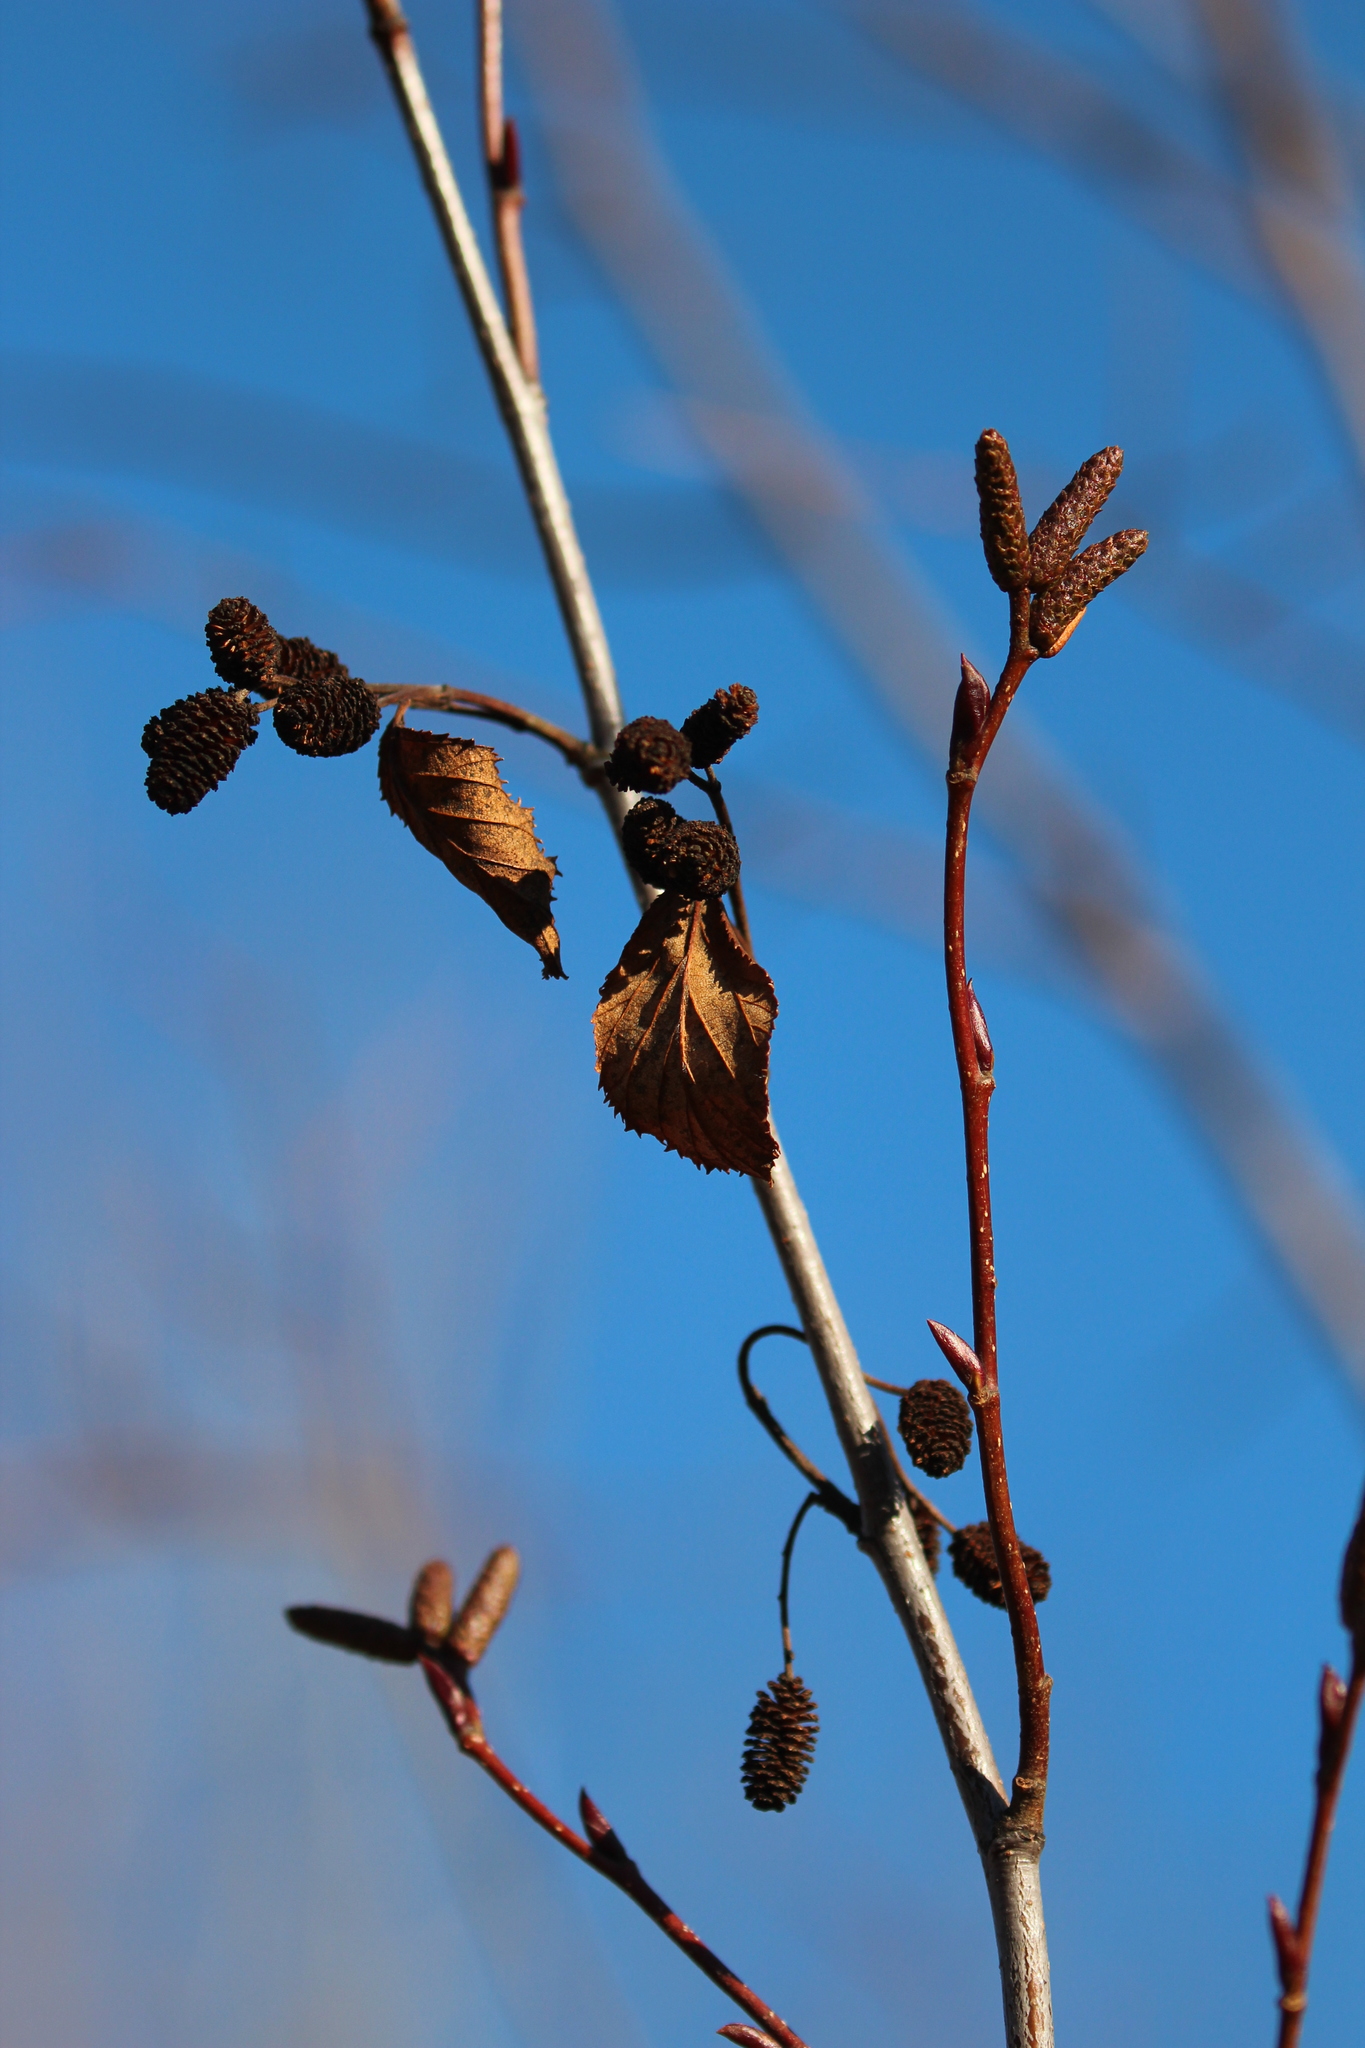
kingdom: Plantae
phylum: Tracheophyta
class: Magnoliopsida
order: Fagales
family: Betulaceae
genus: Alnus
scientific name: Alnus alnobetula
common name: Green alder
